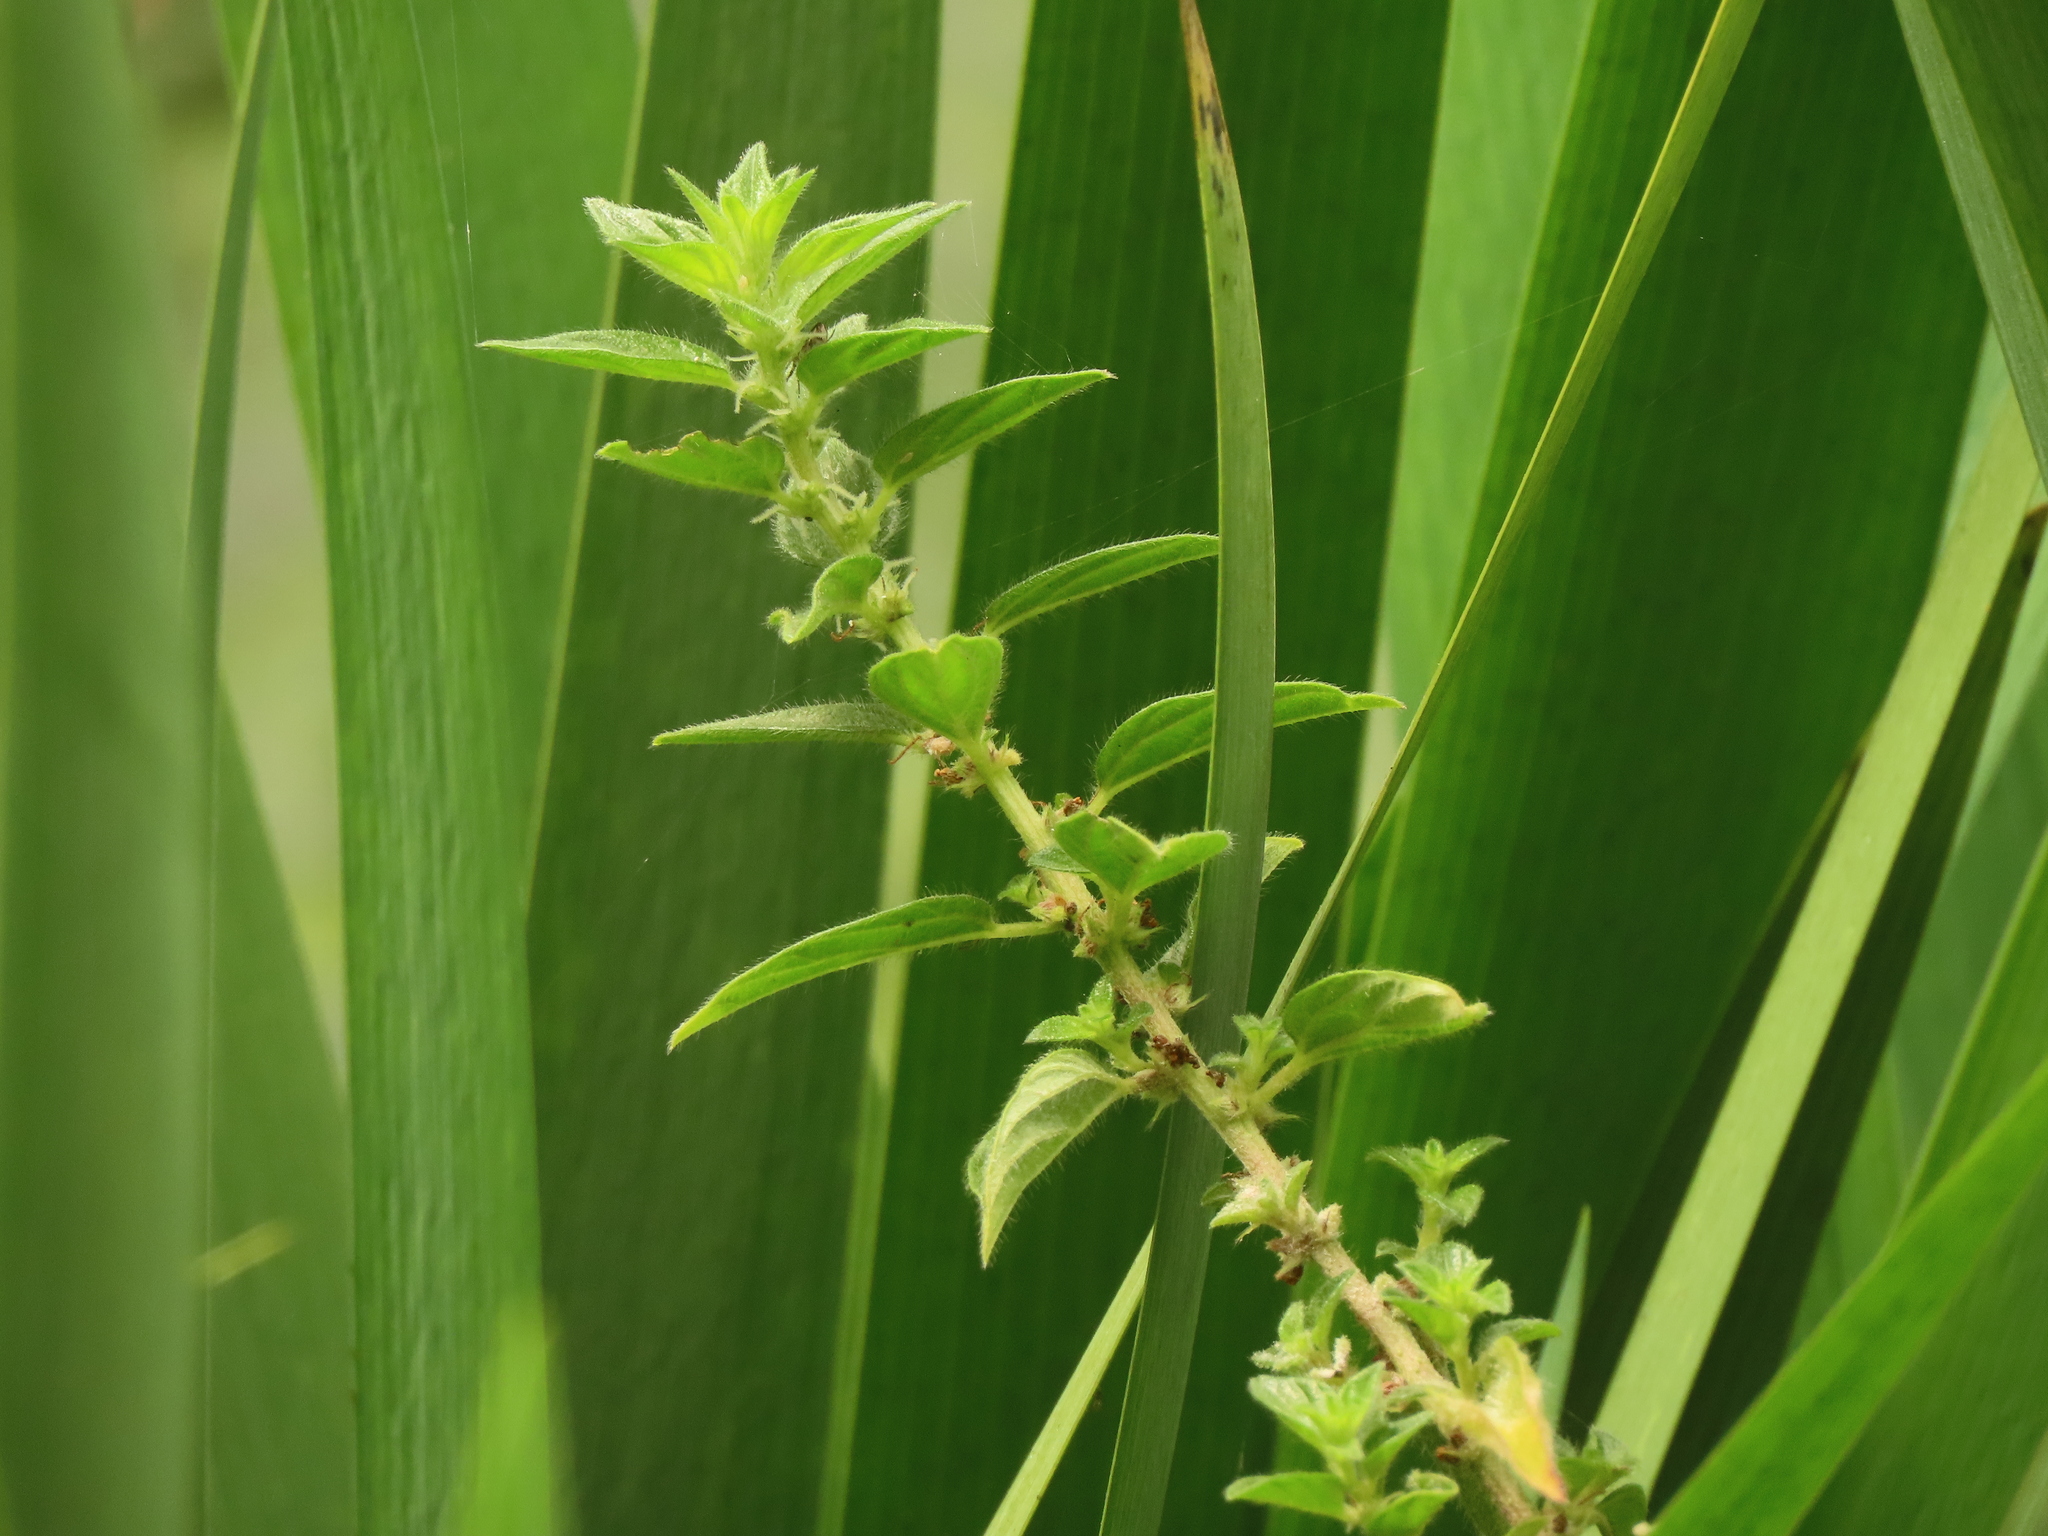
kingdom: Plantae
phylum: Tracheophyta
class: Magnoliopsida
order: Rosales
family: Urticaceae
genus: Pouzolzia
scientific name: Pouzolzia zeylanica
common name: Graceful pouzolzsbush
